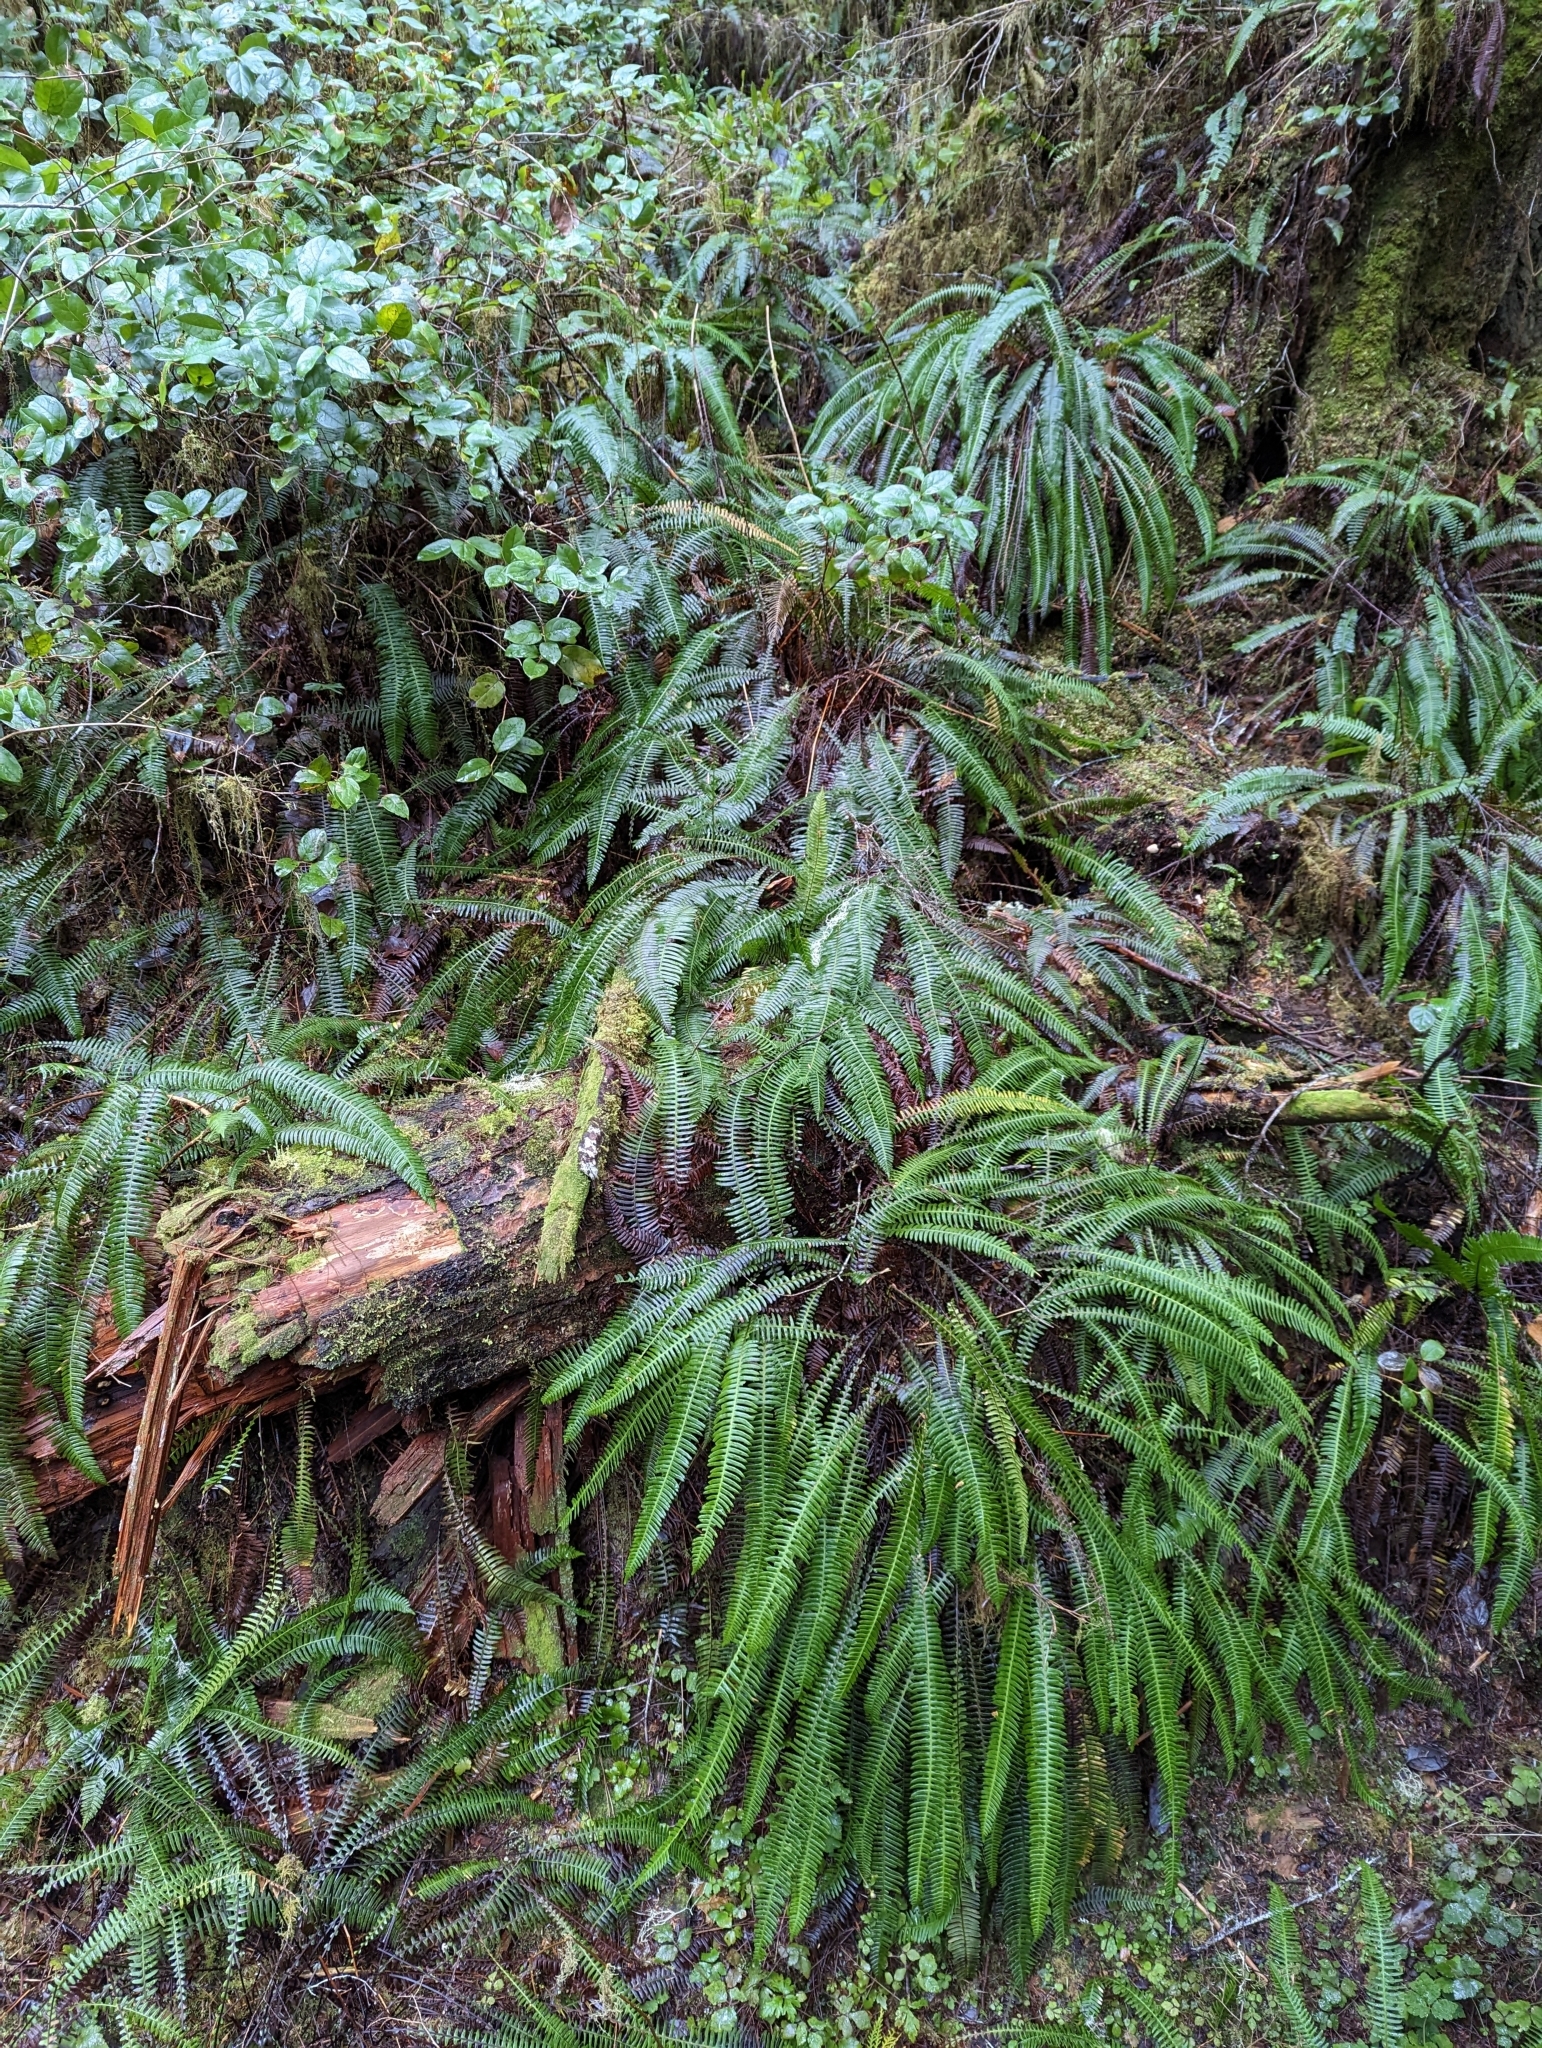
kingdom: Plantae
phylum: Tracheophyta
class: Polypodiopsida
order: Polypodiales
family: Blechnaceae
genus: Struthiopteris
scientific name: Struthiopteris spicant
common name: Deer fern
